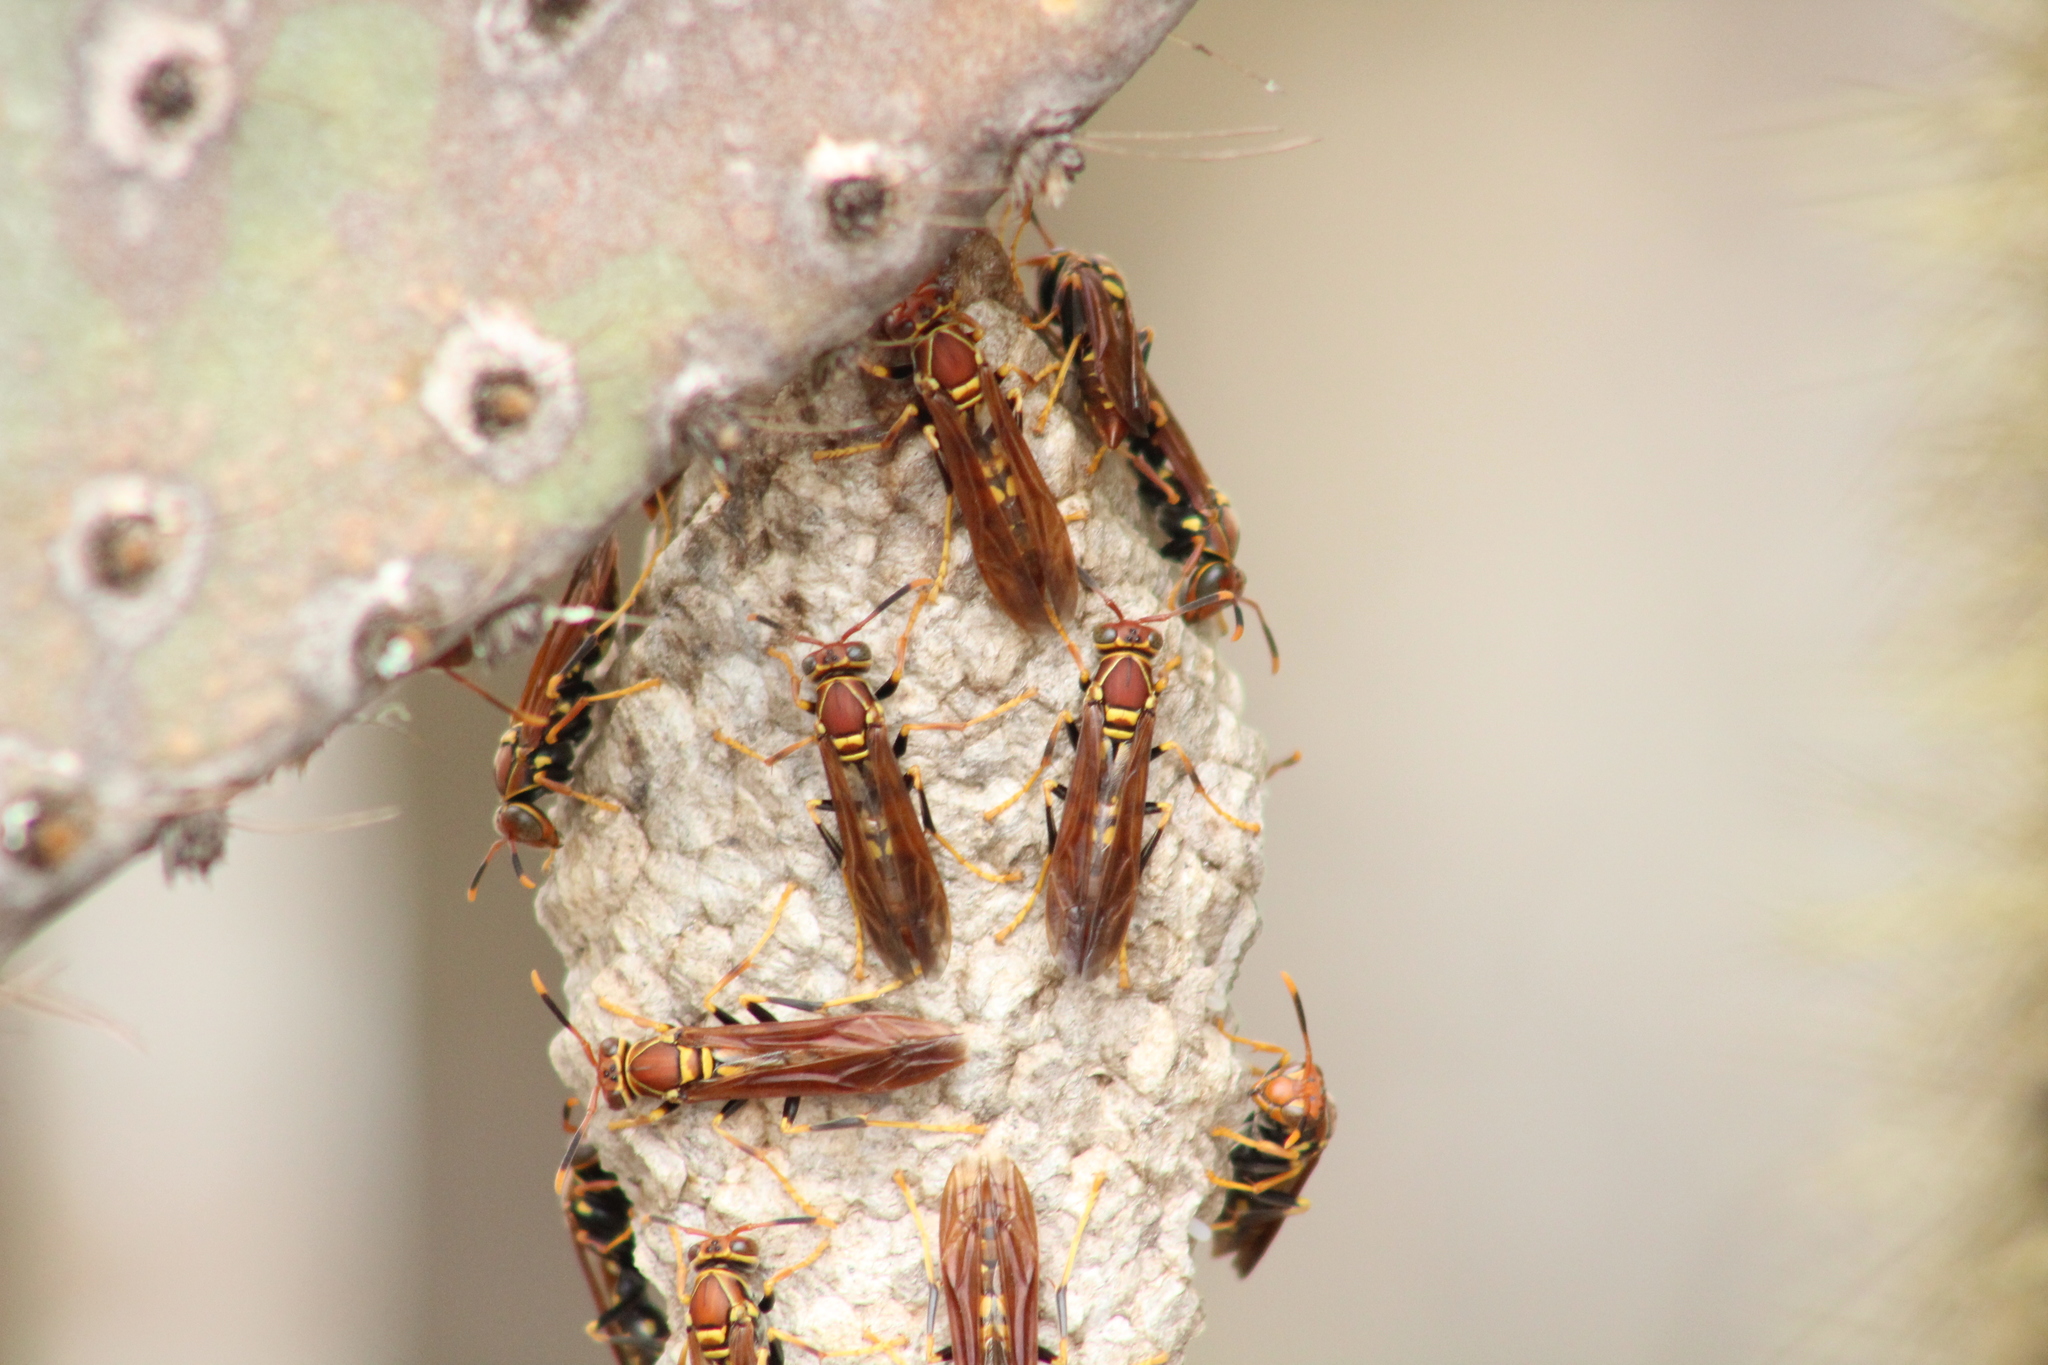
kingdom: Animalia
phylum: Arthropoda
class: Insecta
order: Hymenoptera
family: Eumenidae
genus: Polistes
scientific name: Polistes versicolor
